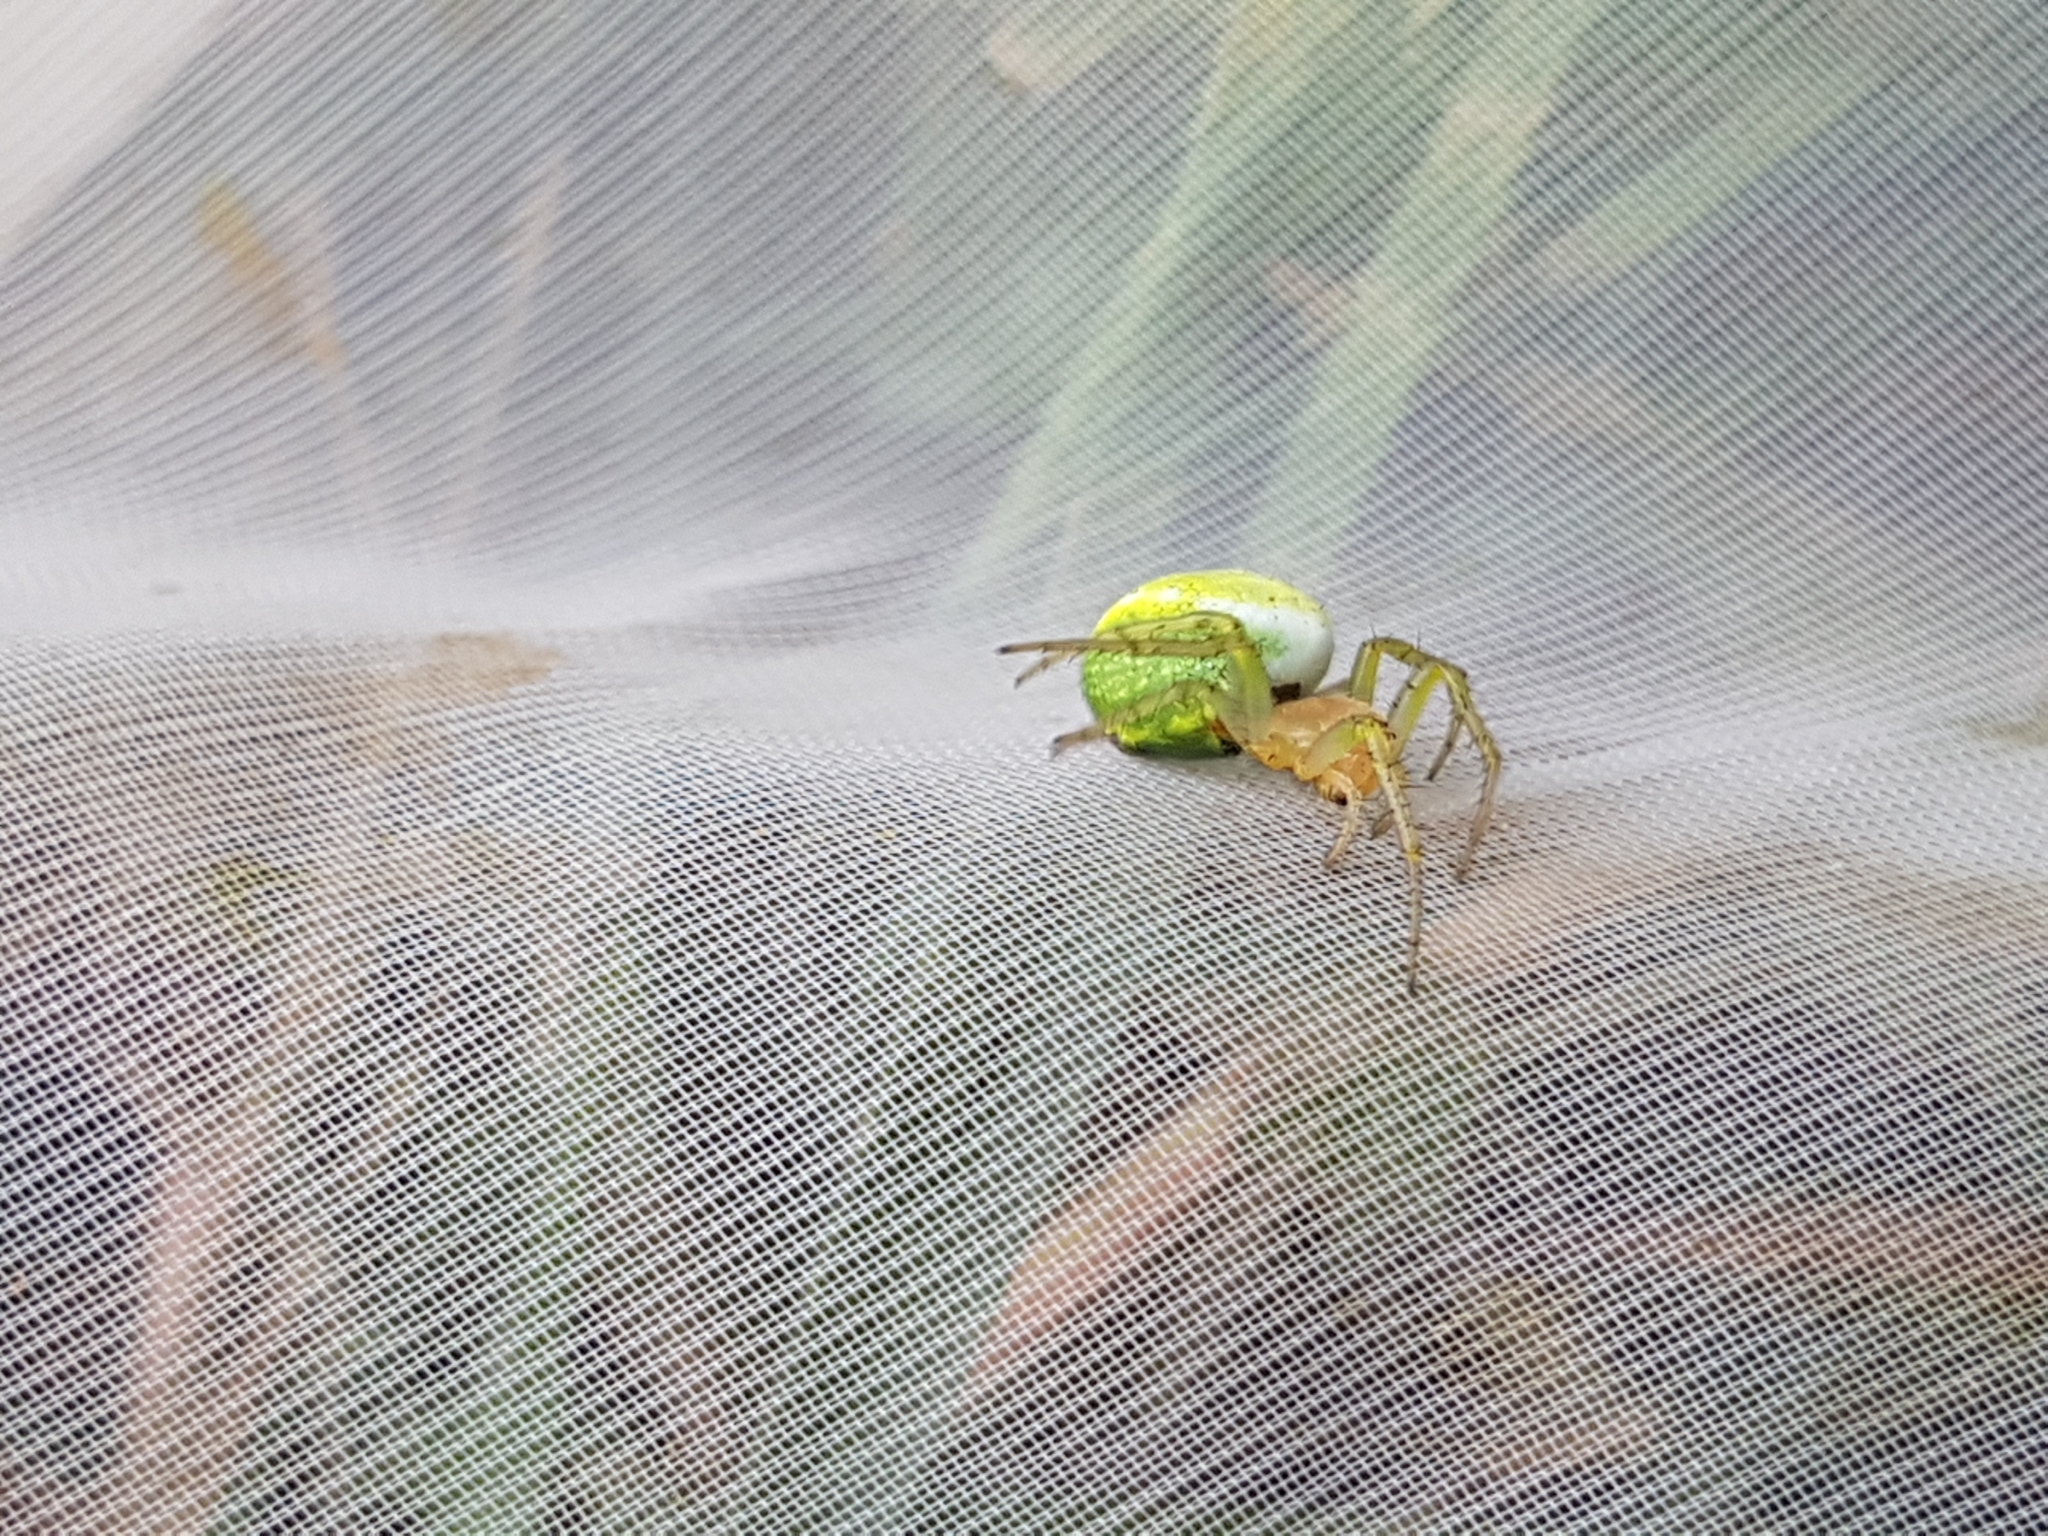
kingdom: Animalia
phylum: Arthropoda
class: Arachnida
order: Araneae
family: Araneidae
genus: Araniella
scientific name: Araniella
